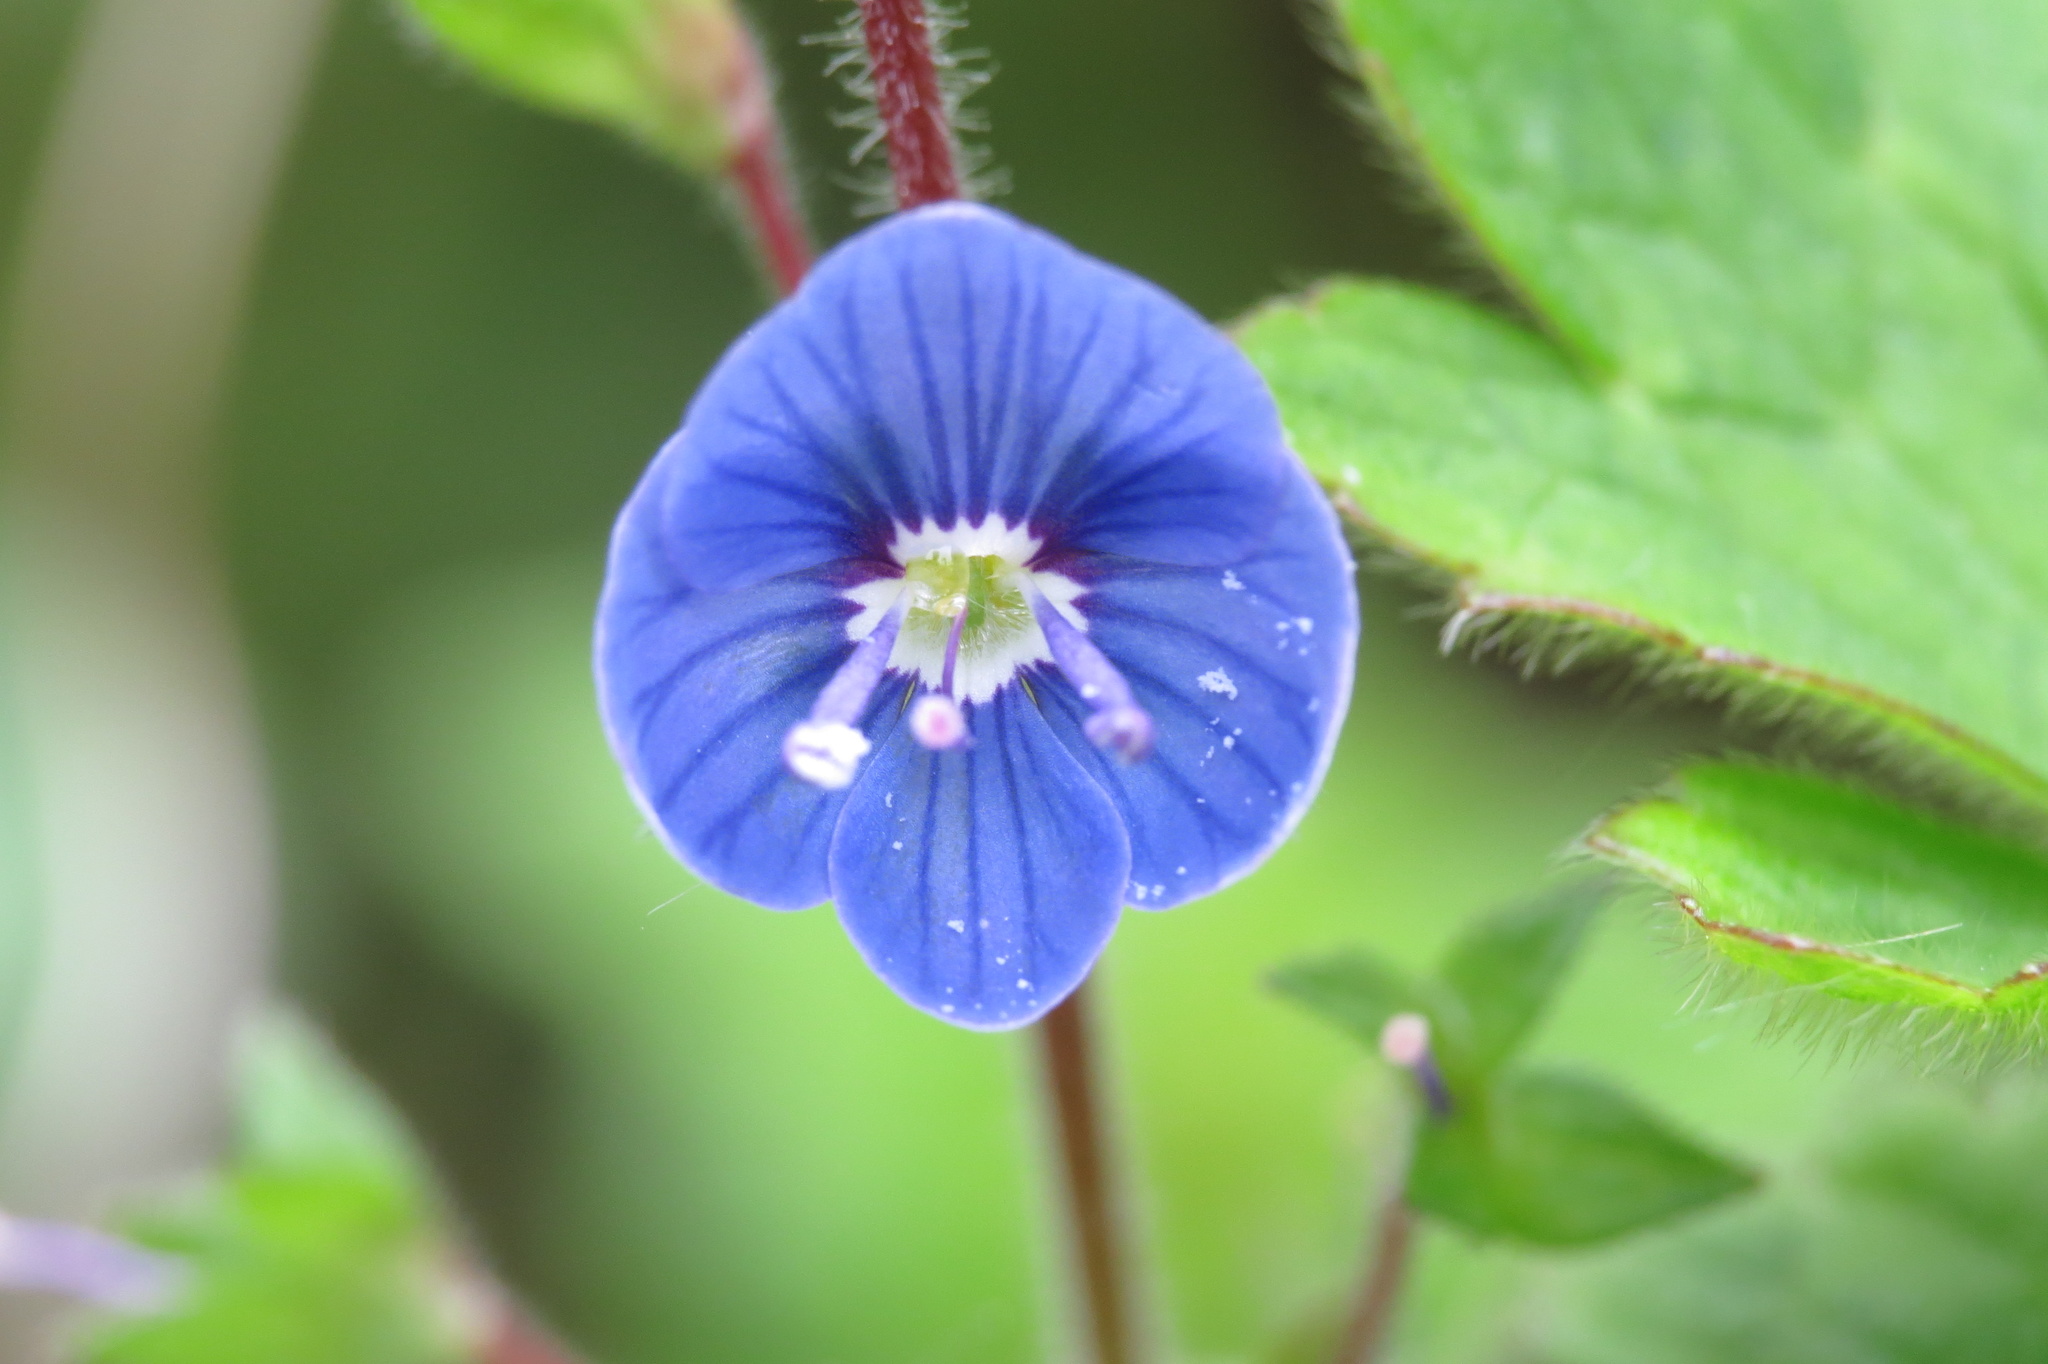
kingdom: Plantae
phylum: Tracheophyta
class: Magnoliopsida
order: Lamiales
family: Plantaginaceae
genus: Veronica
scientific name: Veronica chamaedrys
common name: Germander speedwell
